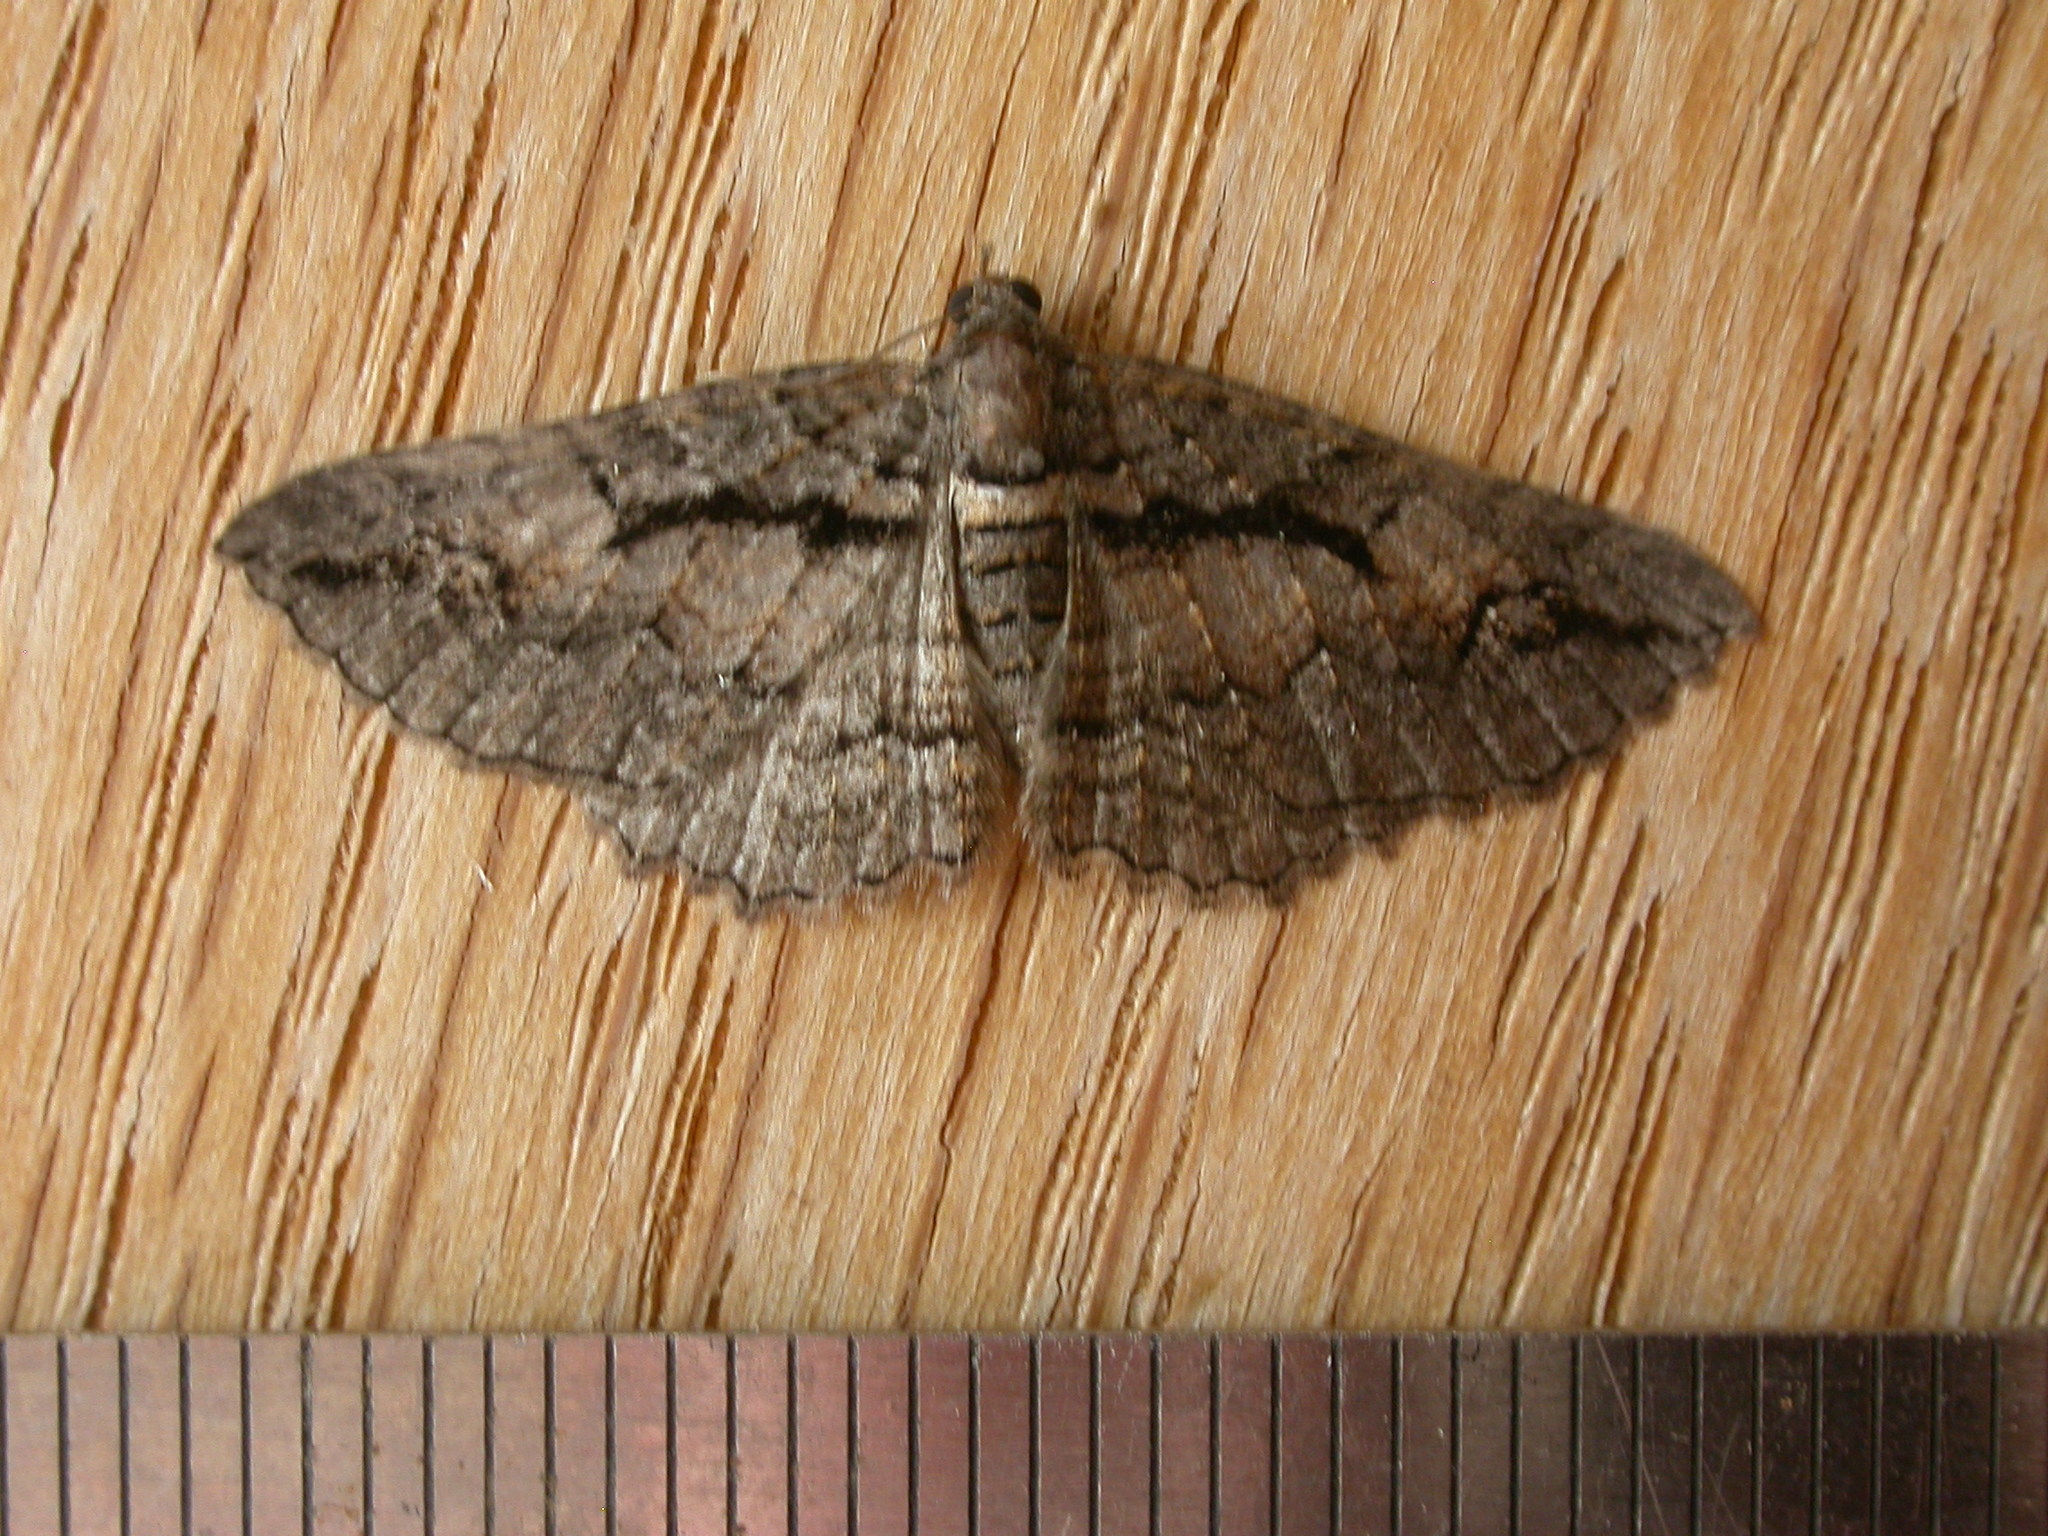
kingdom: Animalia
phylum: Arthropoda
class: Insecta
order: Lepidoptera
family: Geometridae
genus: Chrysolarentia
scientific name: Chrysolarentia plagiocausta
